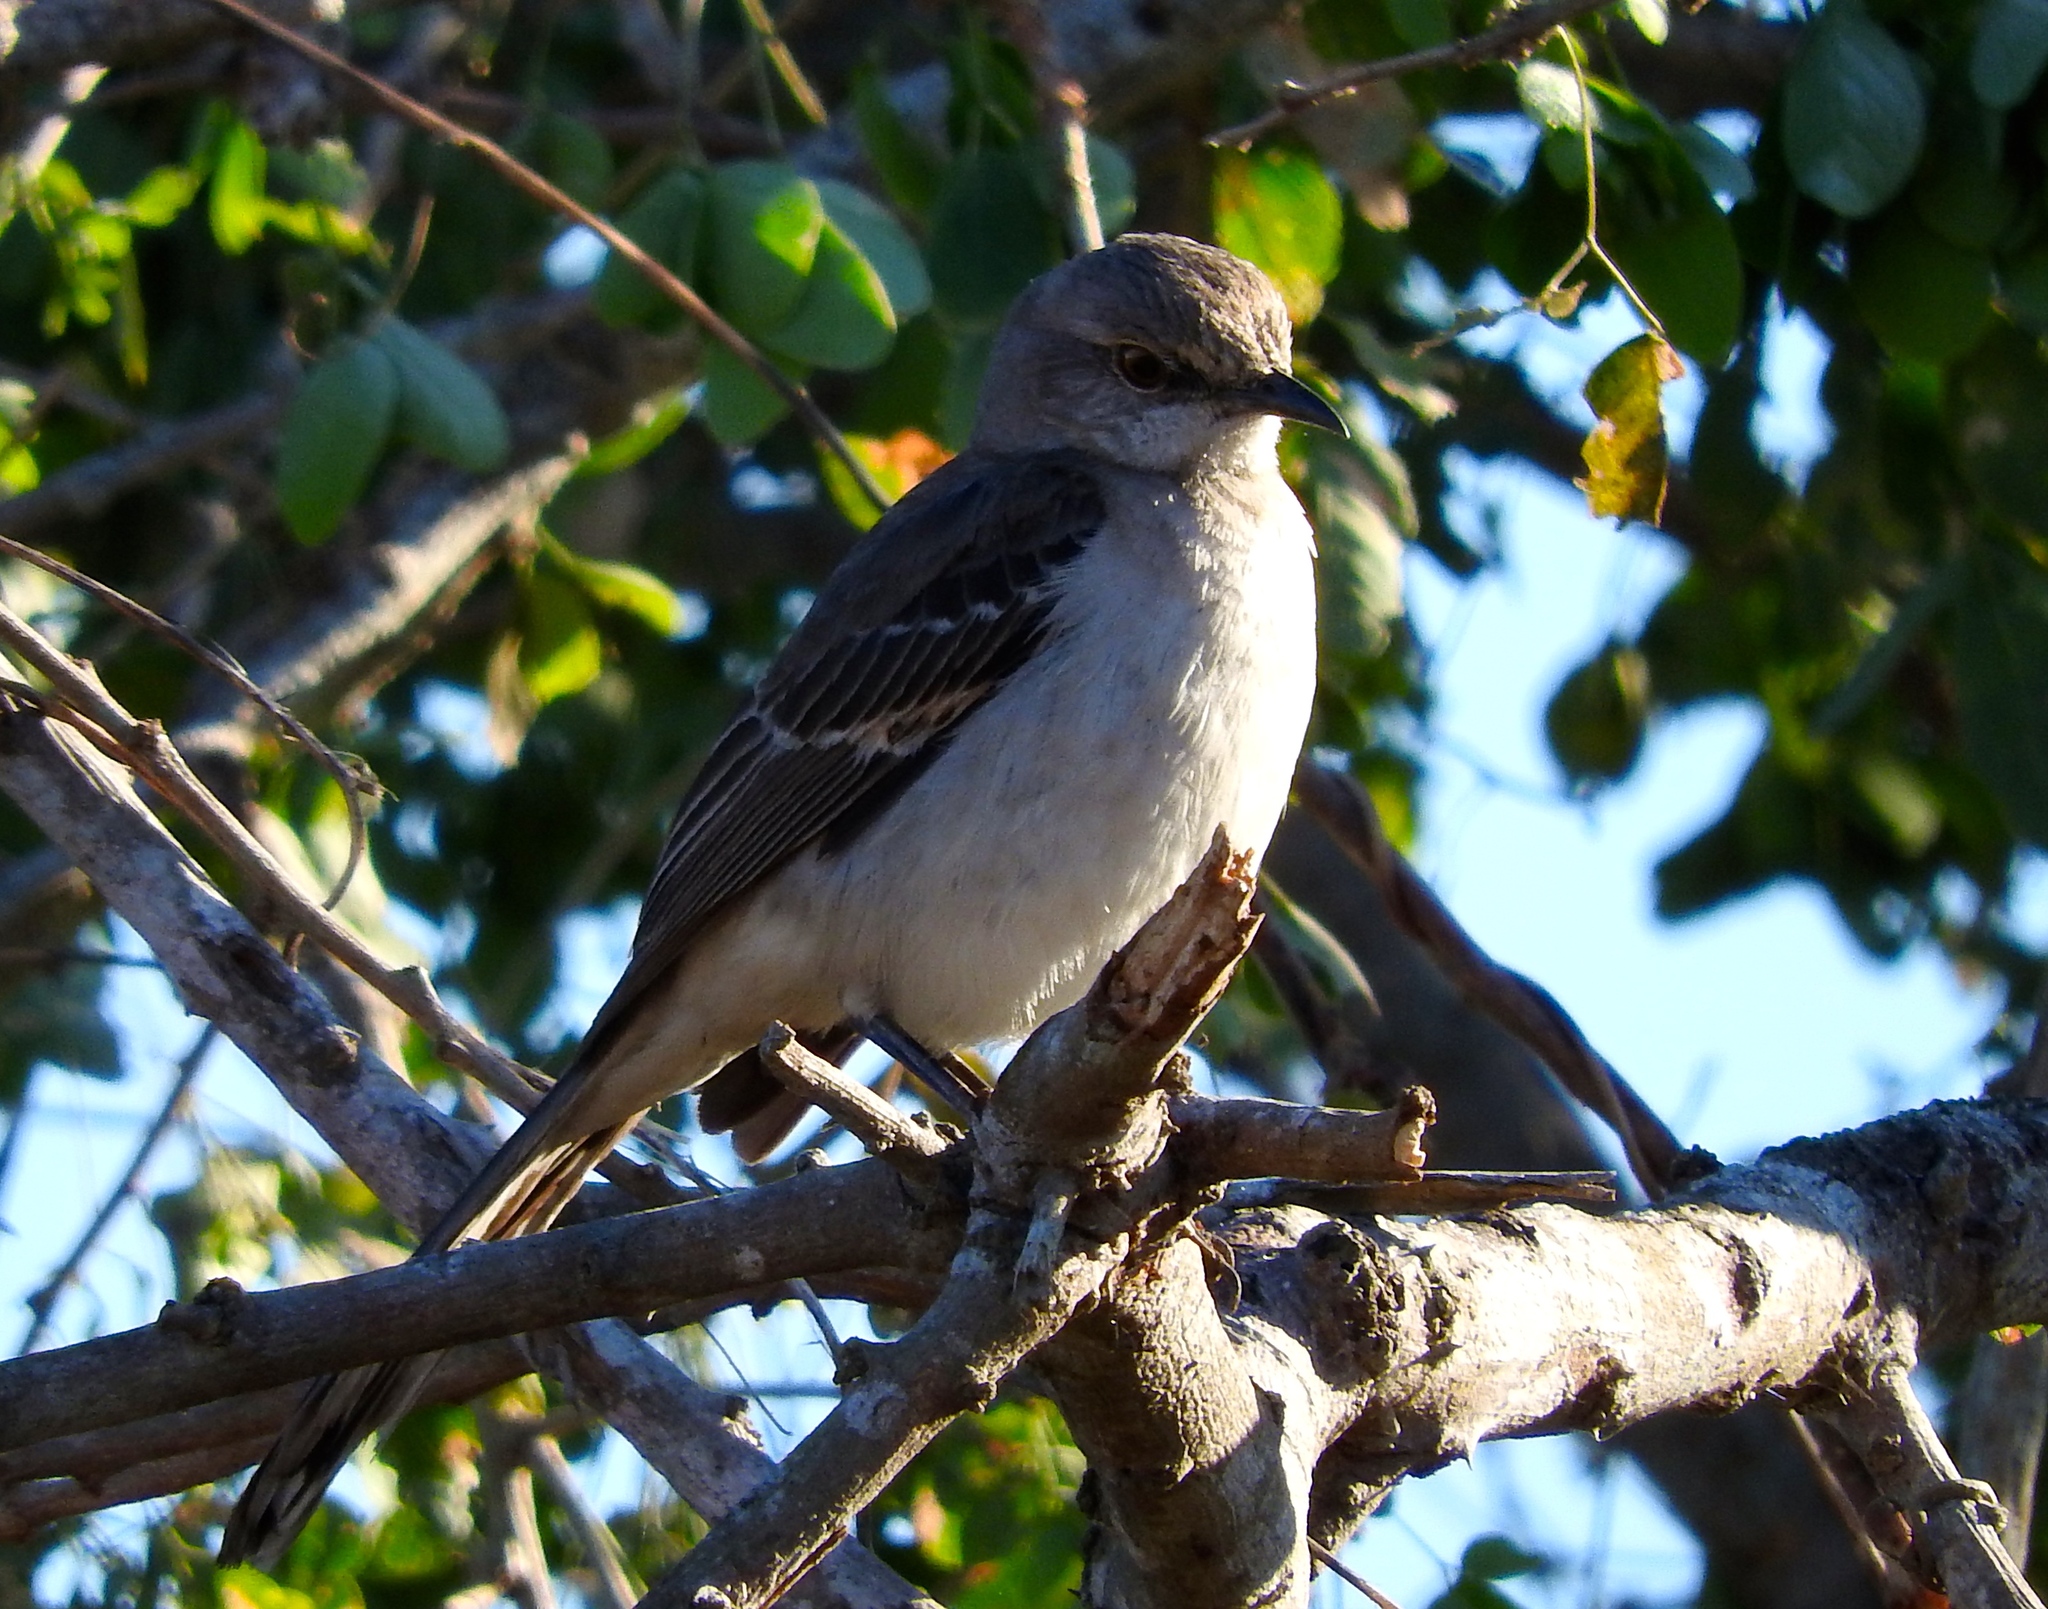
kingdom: Animalia
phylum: Chordata
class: Aves
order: Passeriformes
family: Mimidae
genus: Mimus
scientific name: Mimus polyglottos
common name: Northern mockingbird
